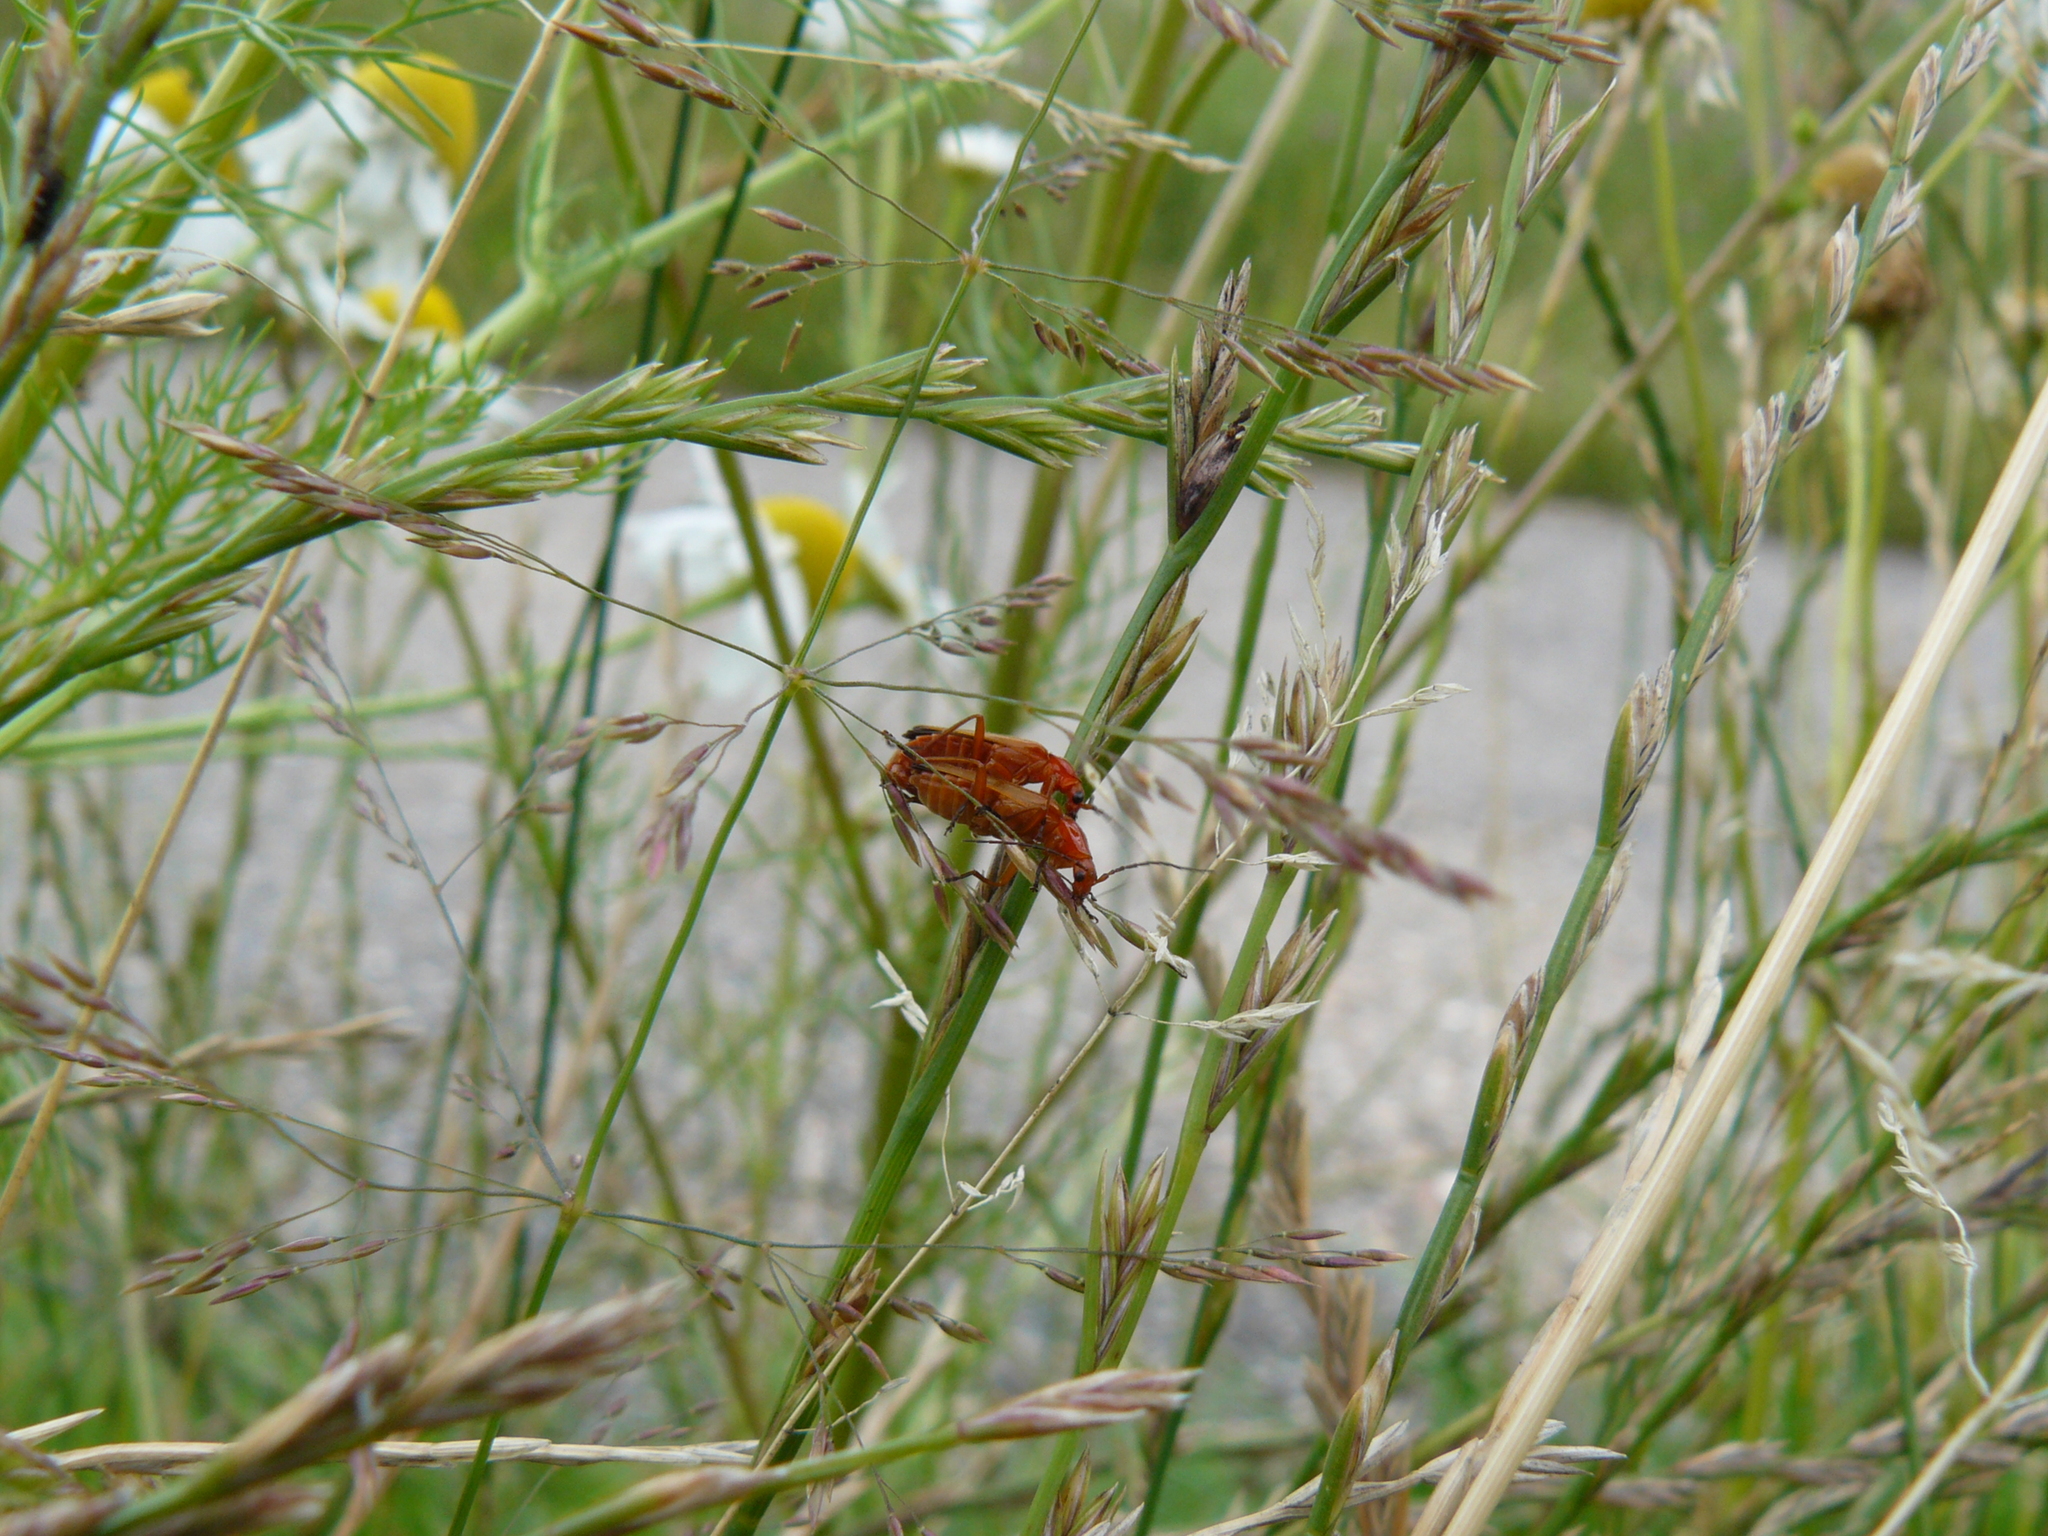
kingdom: Animalia
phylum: Arthropoda
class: Insecta
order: Coleoptera
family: Cantharidae
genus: Rhagonycha
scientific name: Rhagonycha fulva
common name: Common red soldier beetle
